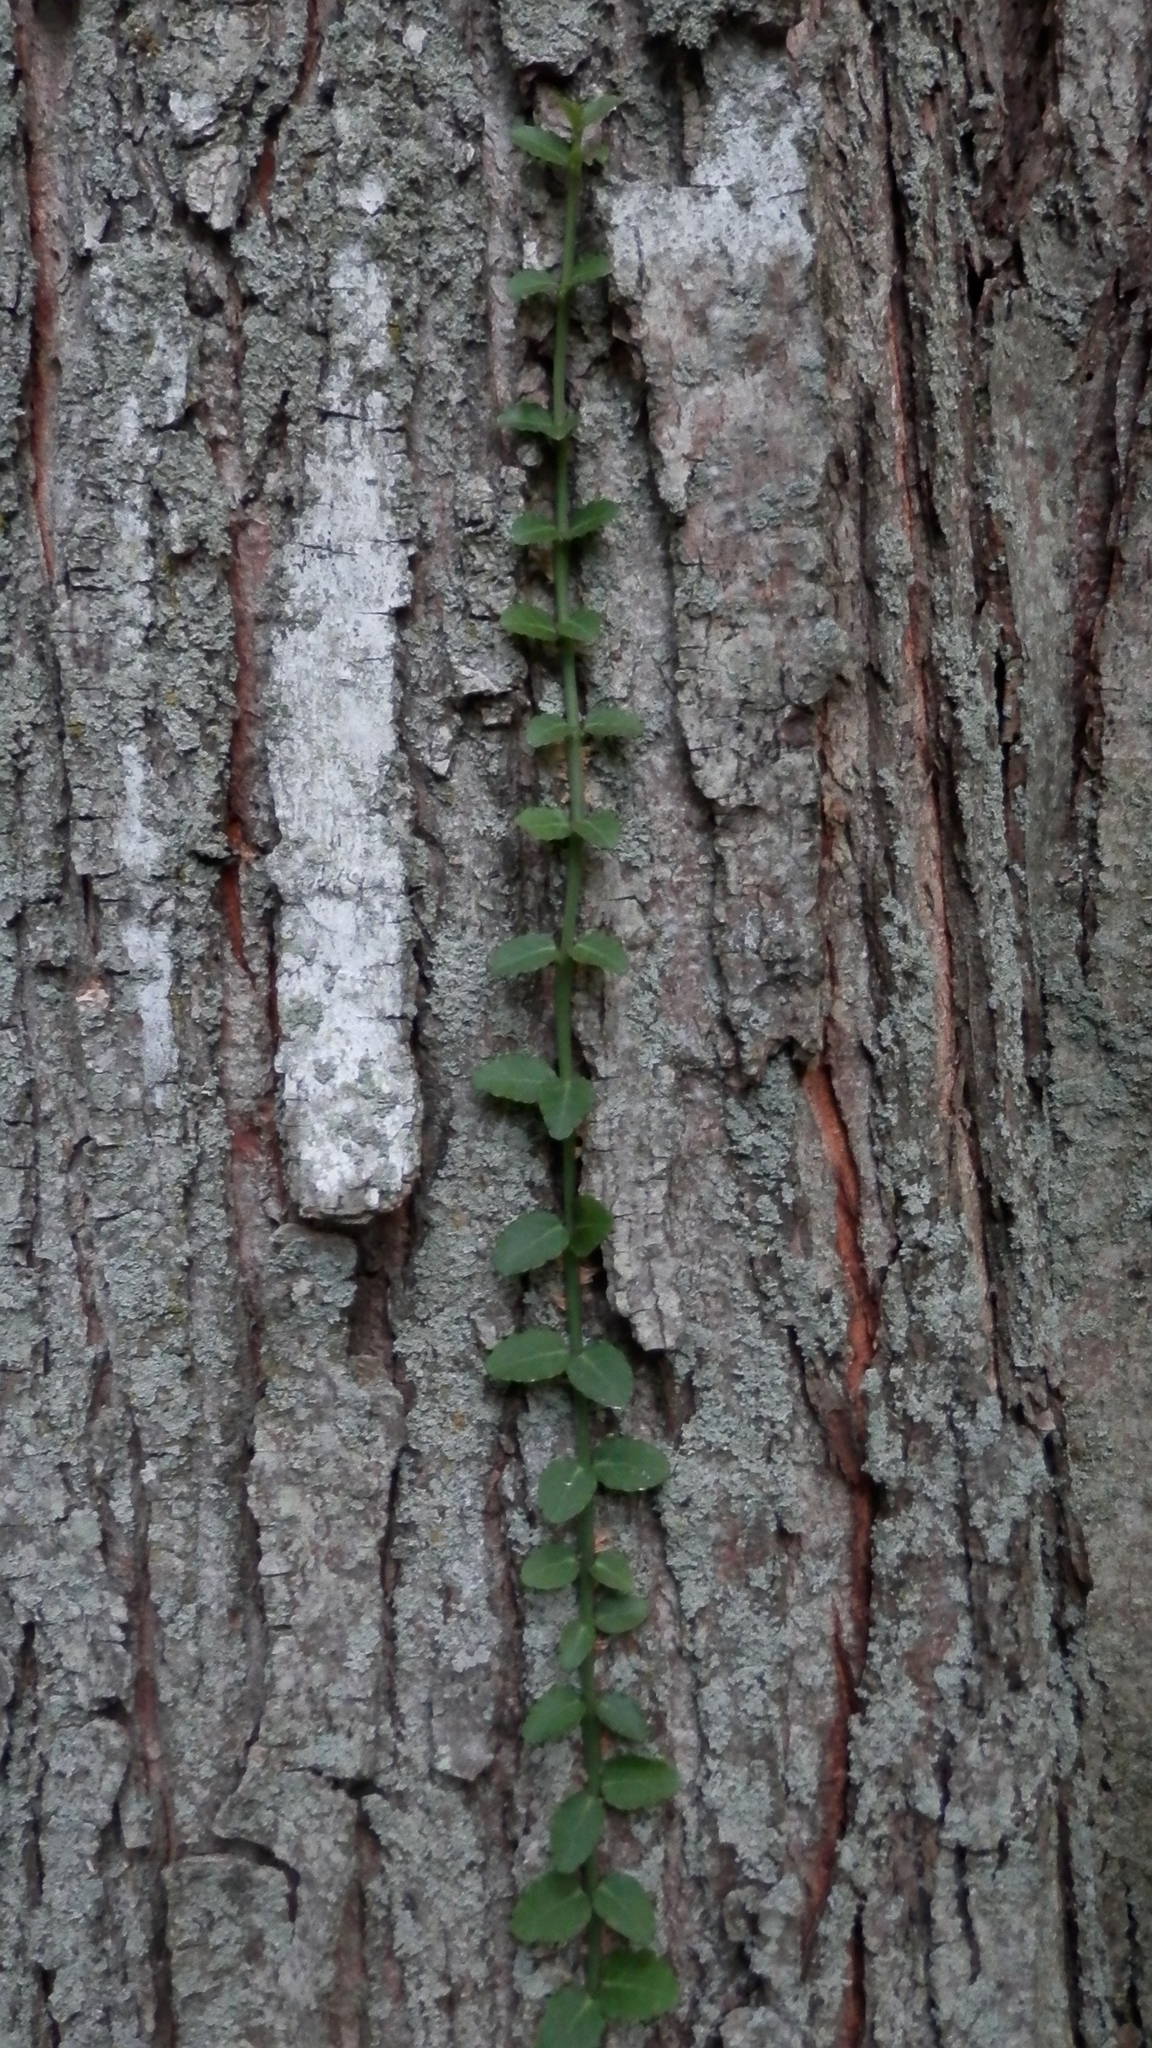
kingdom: Plantae
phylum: Tracheophyta
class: Magnoliopsida
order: Celastrales
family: Celastraceae
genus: Euonymus
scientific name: Euonymus fortunei
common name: Climbing euonymus
